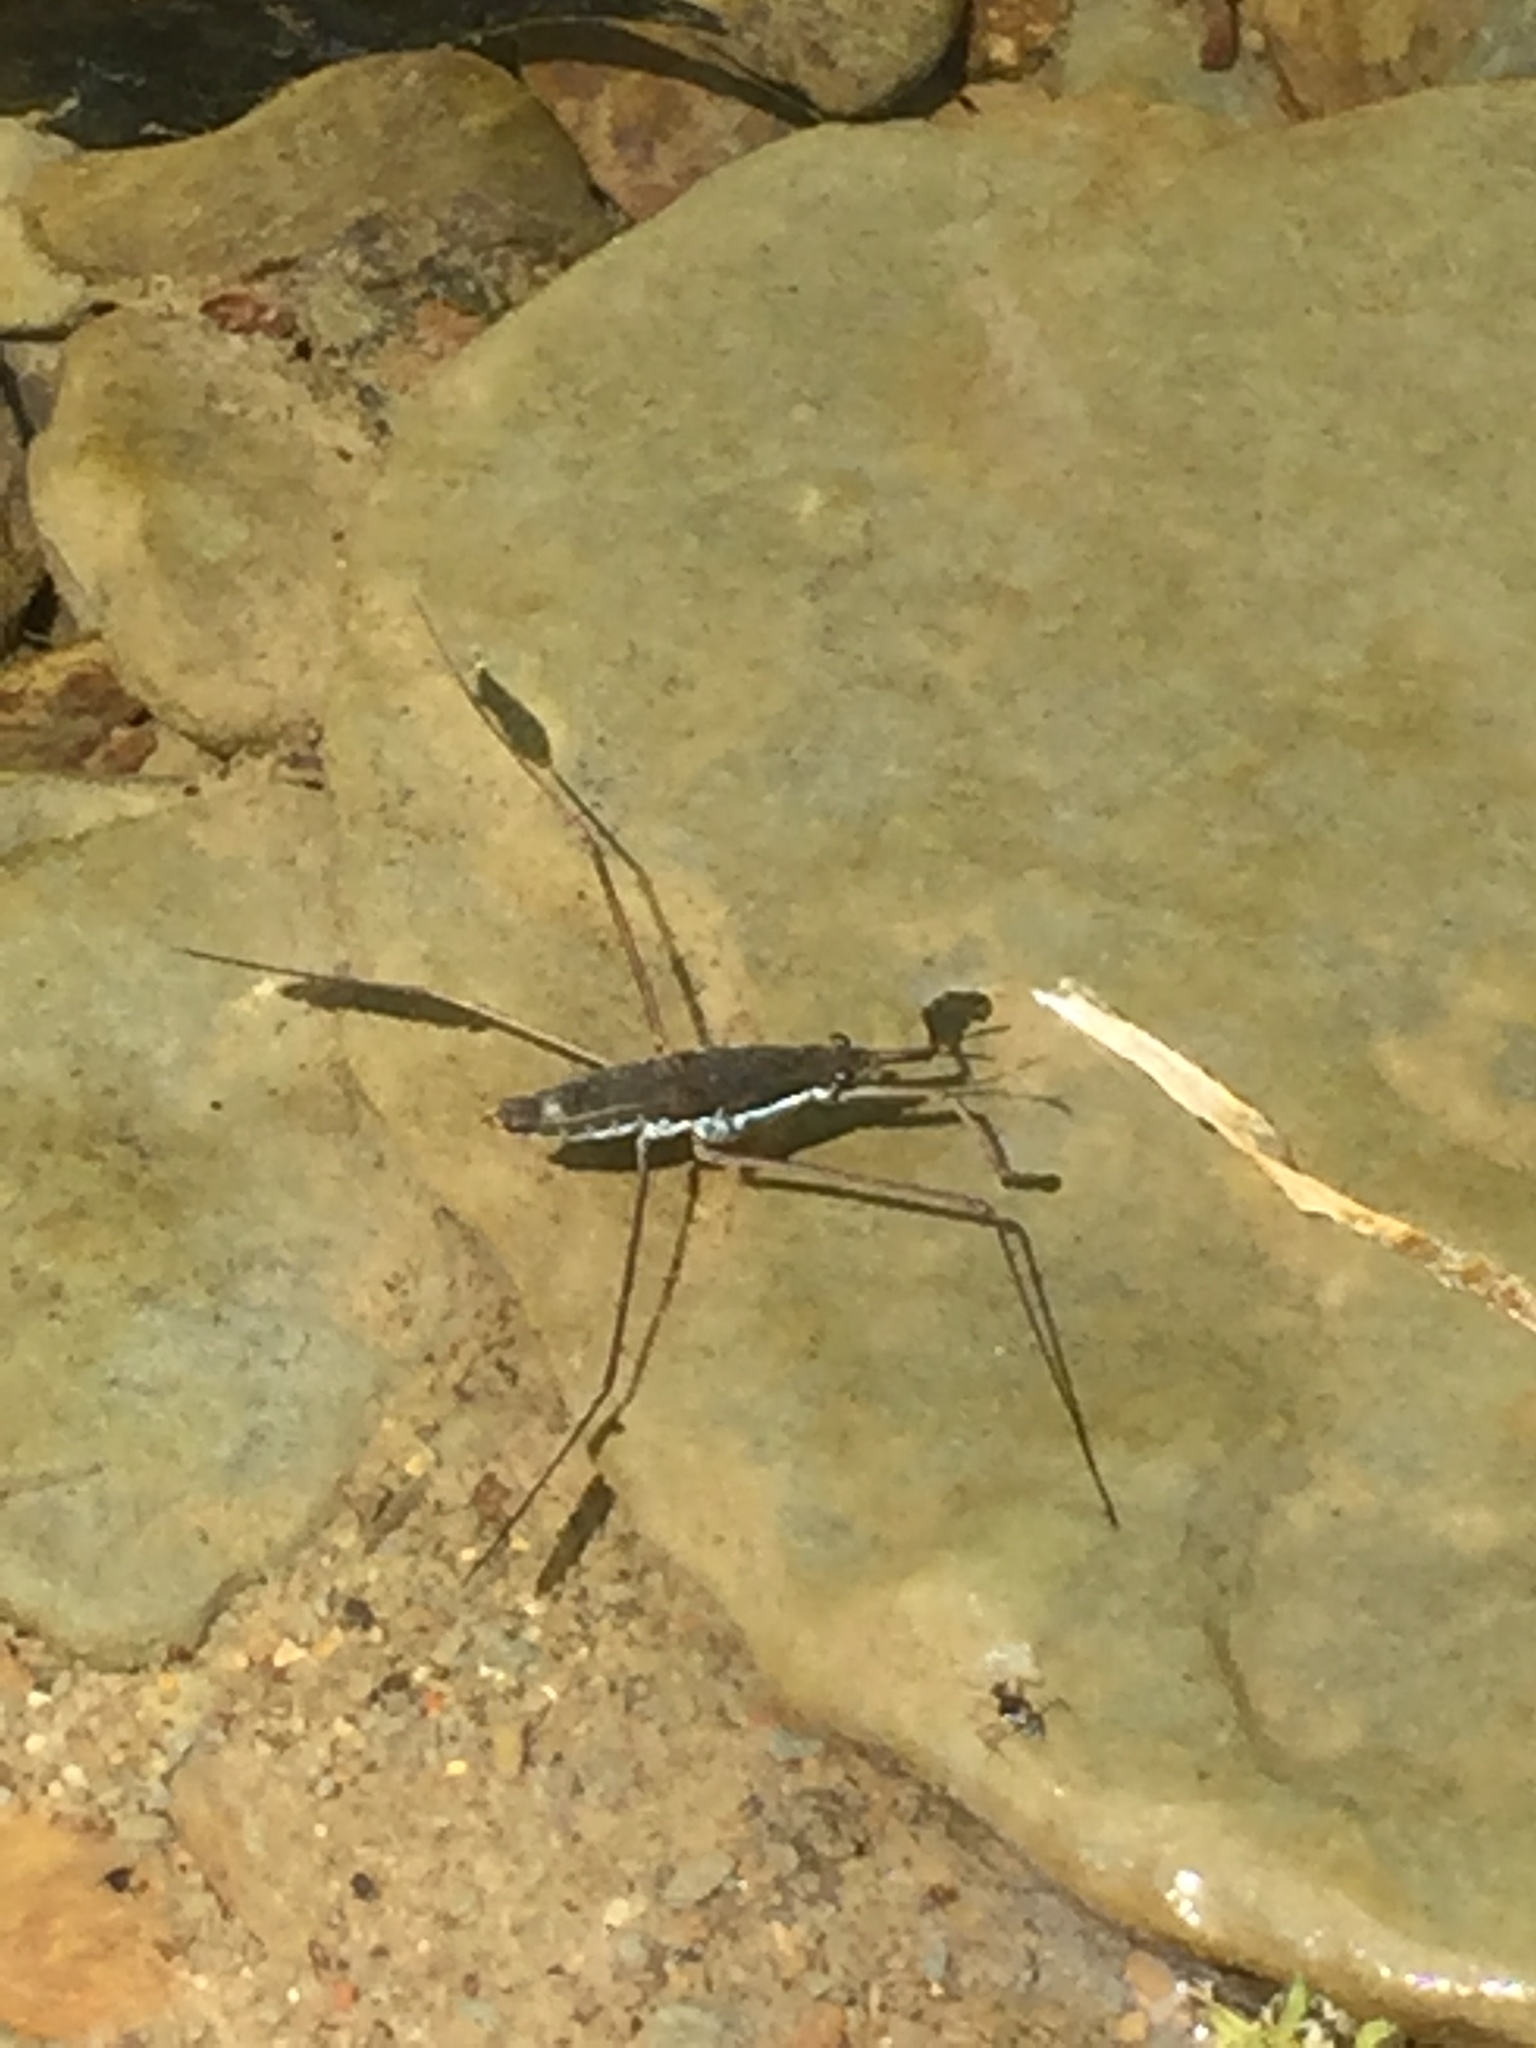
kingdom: Animalia
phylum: Arthropoda
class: Insecta
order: Hemiptera
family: Gerridae
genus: Aquarius
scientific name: Aquarius remigis
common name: Common water strider
